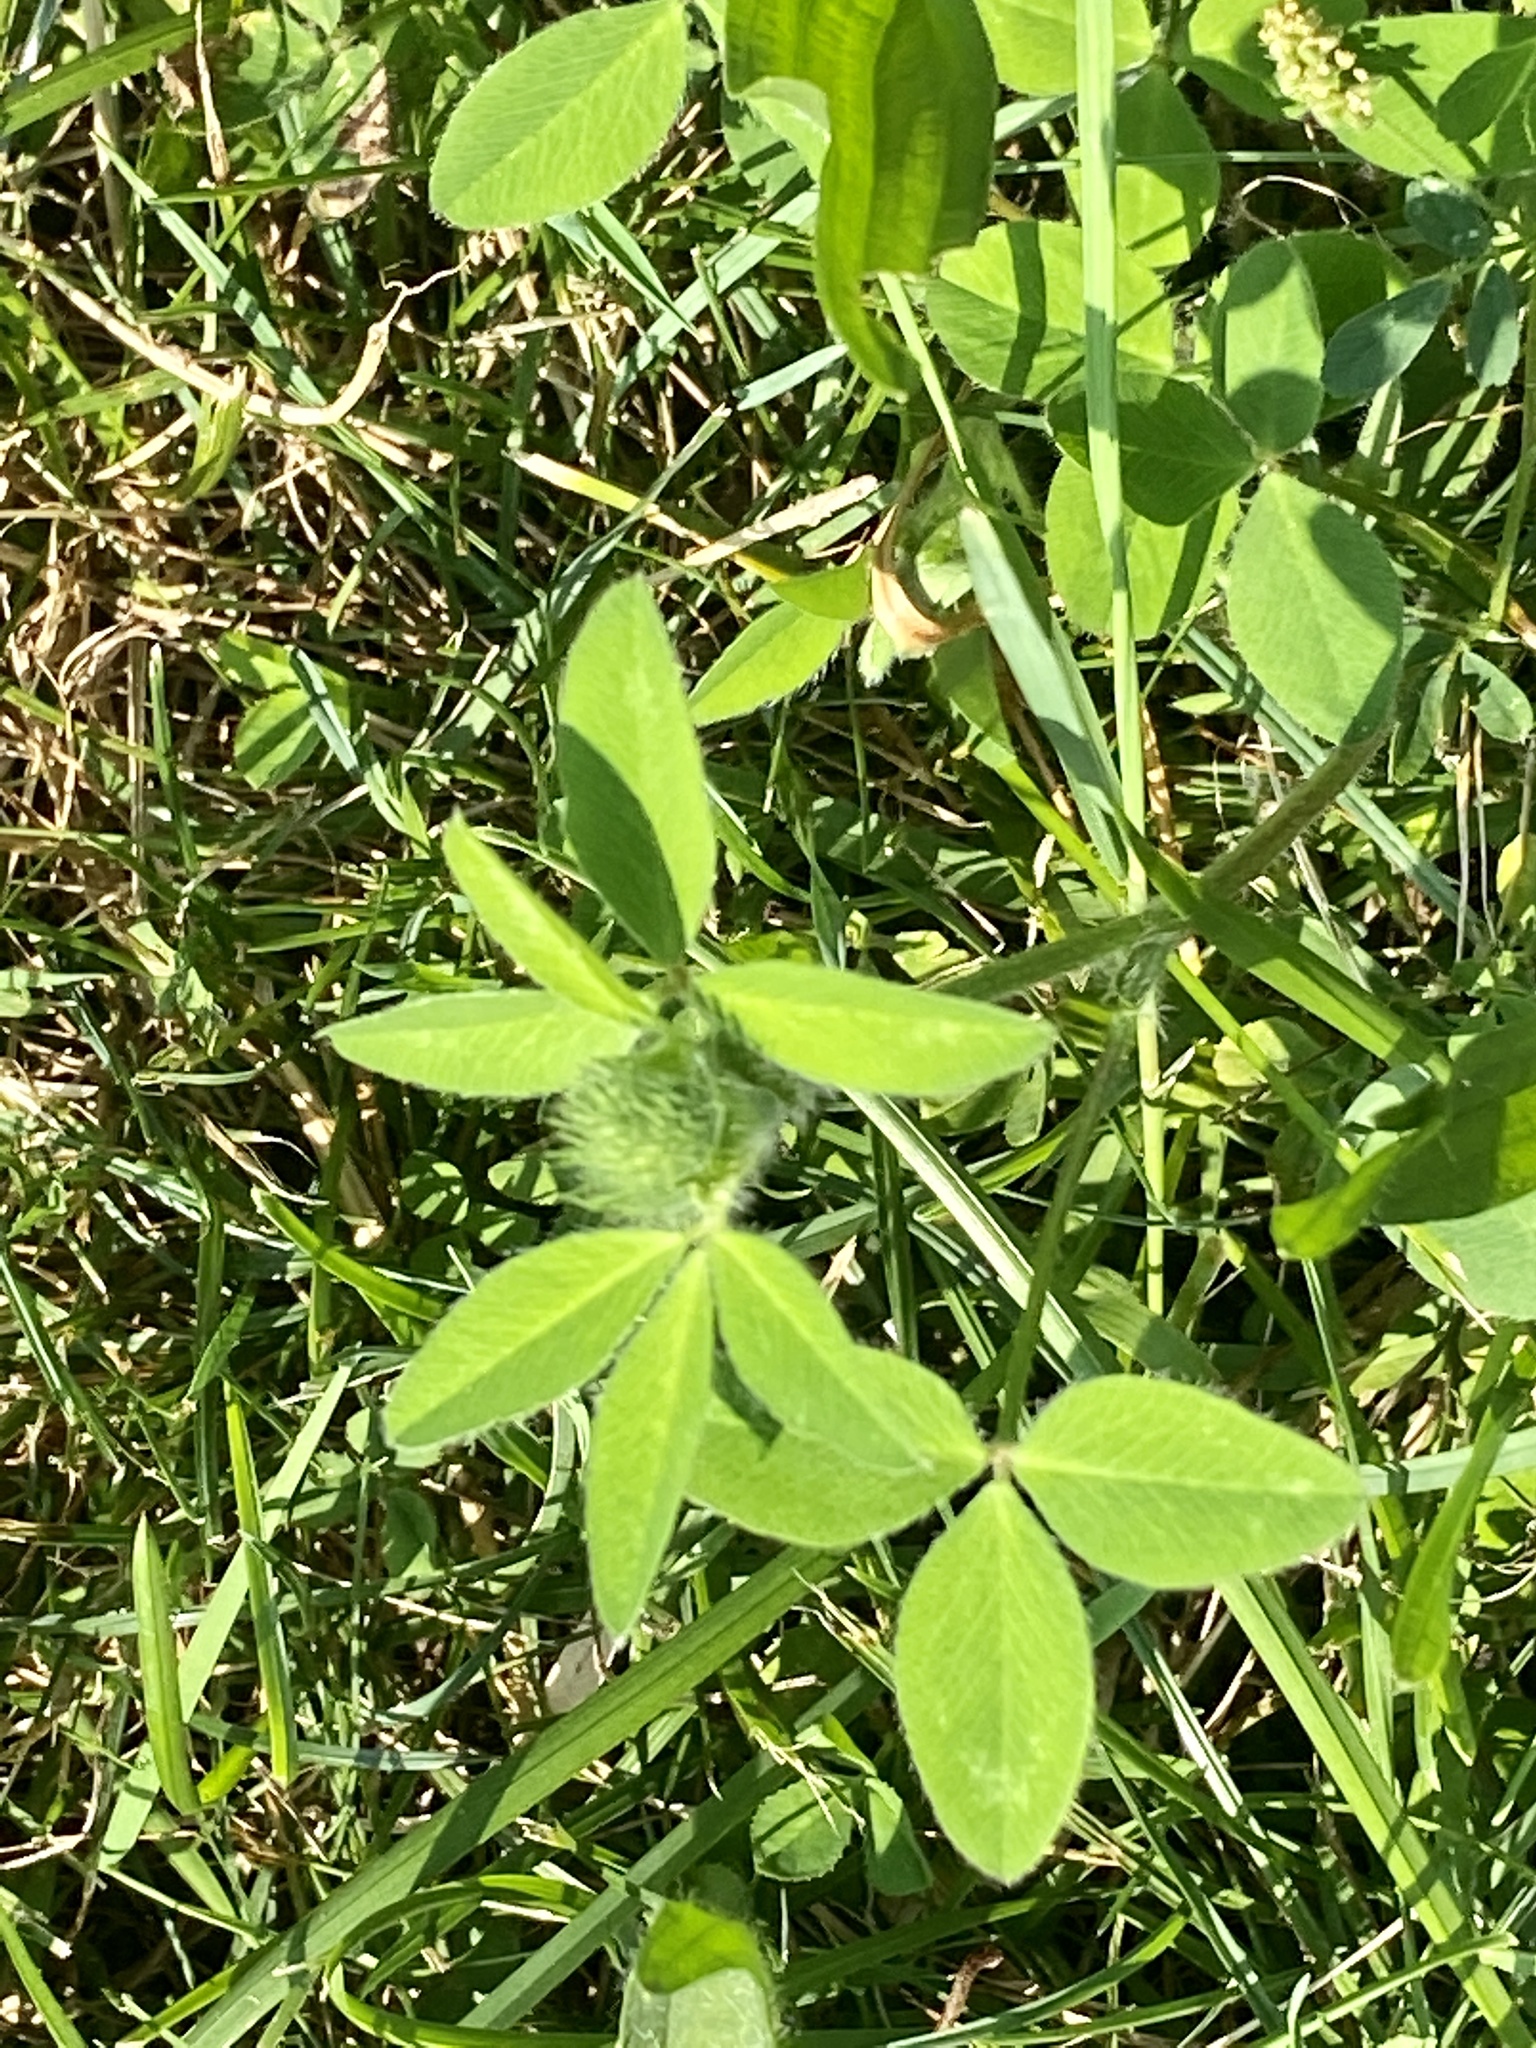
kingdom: Plantae
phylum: Tracheophyta
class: Magnoliopsida
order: Fabales
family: Fabaceae
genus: Trifolium
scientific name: Trifolium pratense
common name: Red clover
